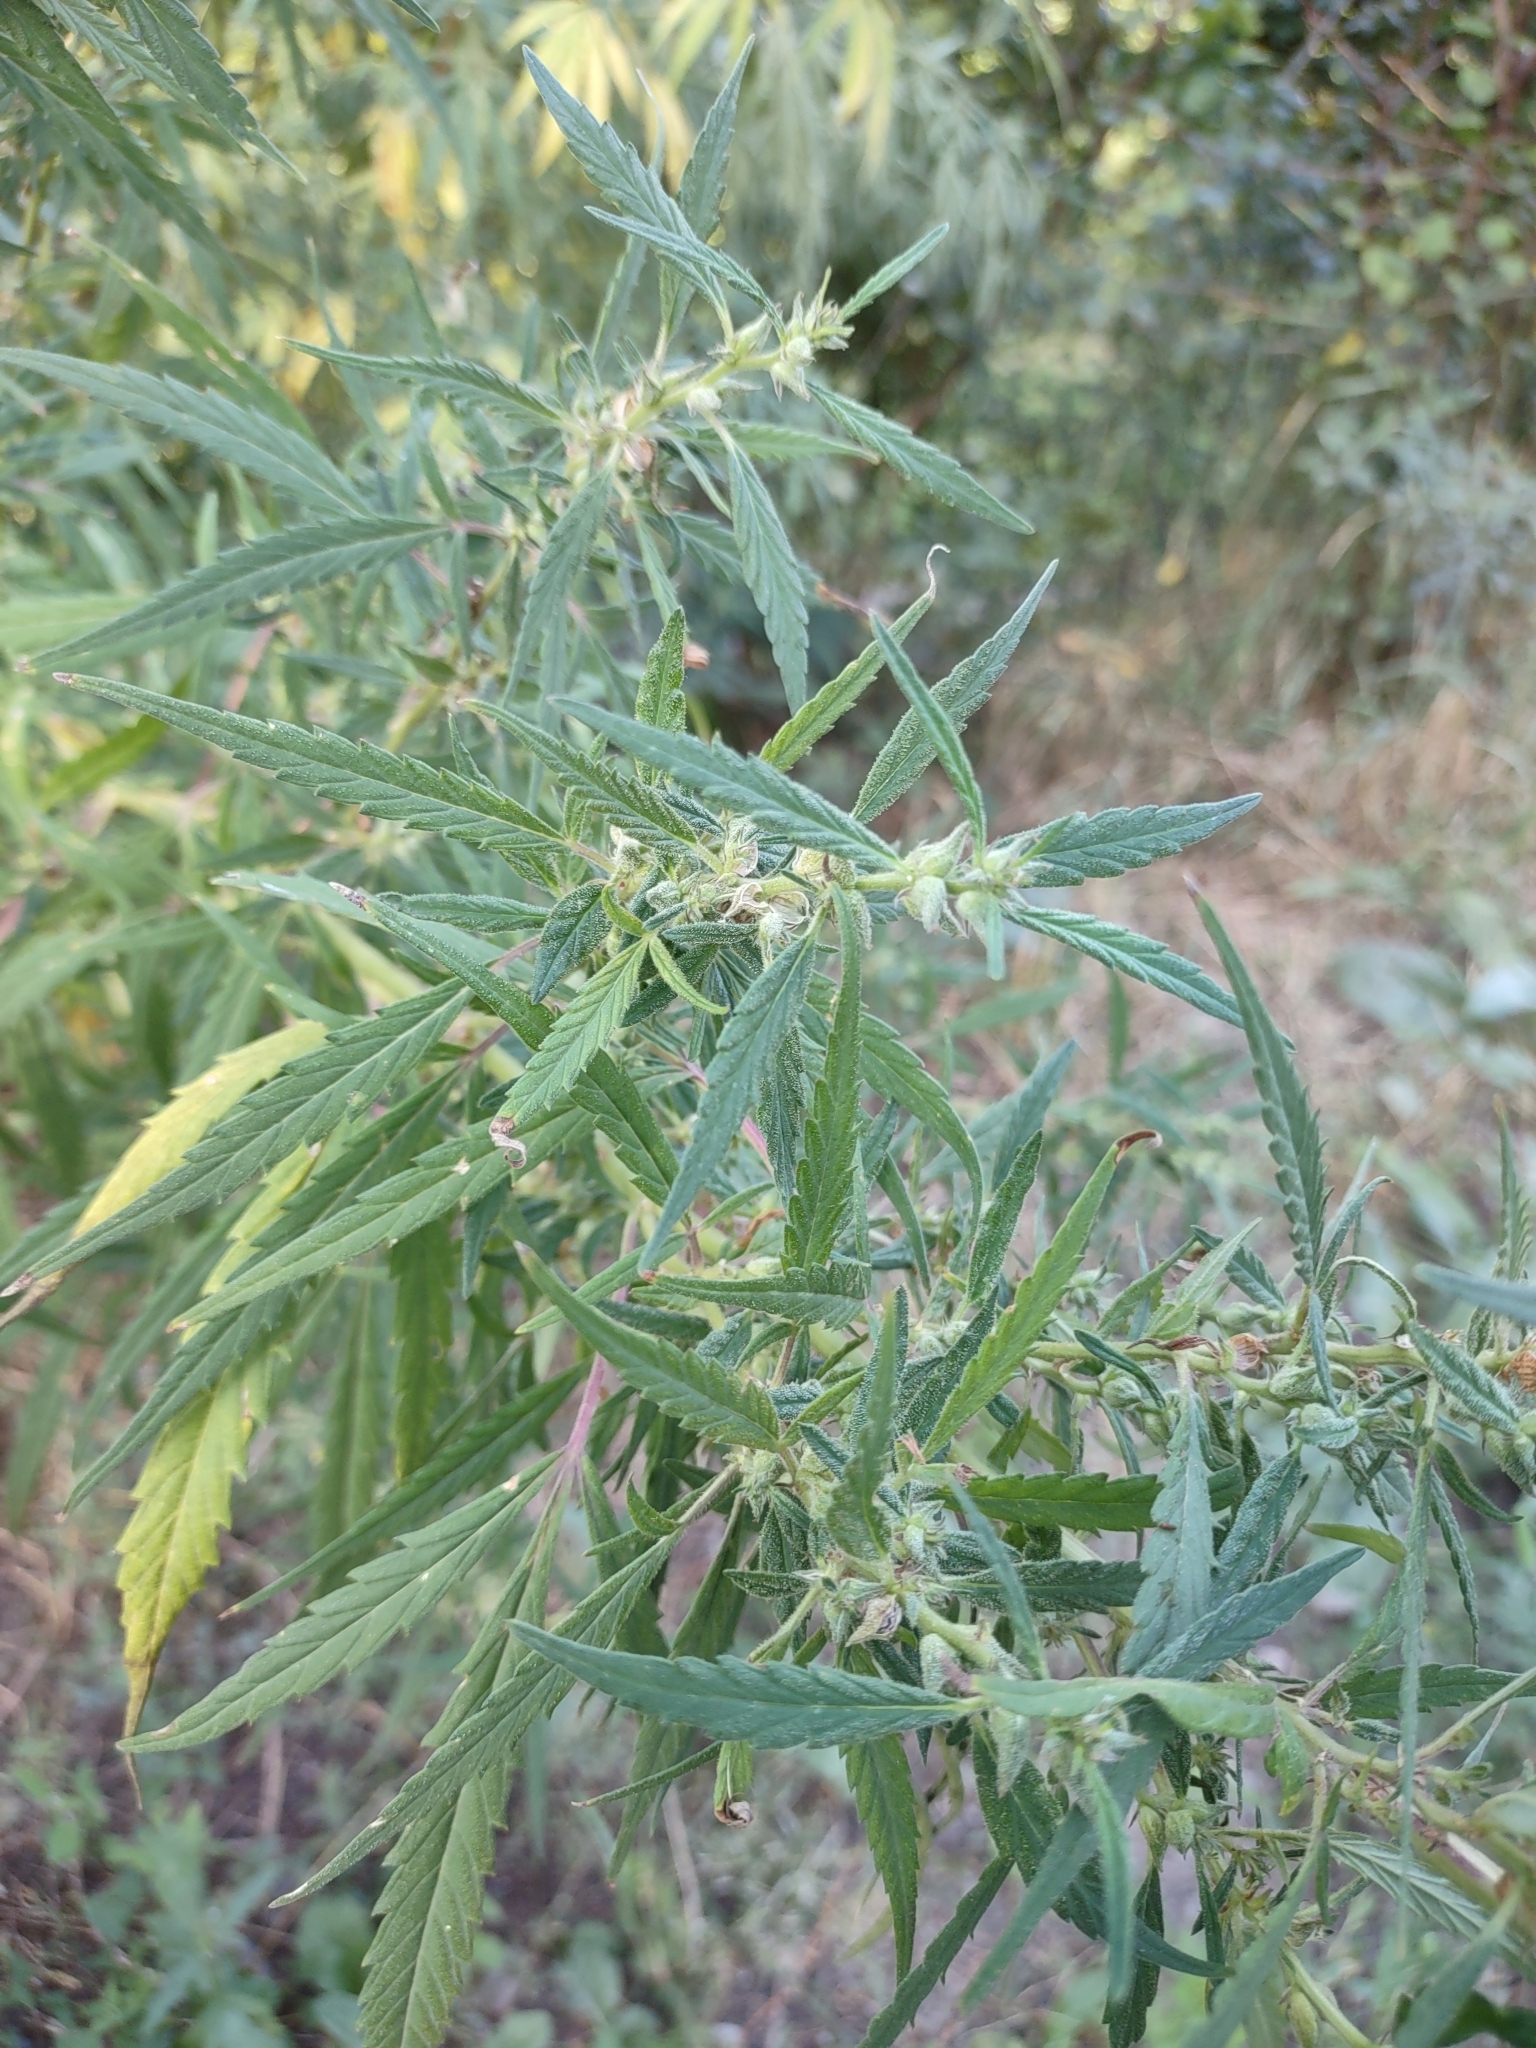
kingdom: Plantae
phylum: Tracheophyta
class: Magnoliopsida
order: Rosales
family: Cannabaceae
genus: Cannabis
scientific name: Cannabis sativa
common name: Hemp
